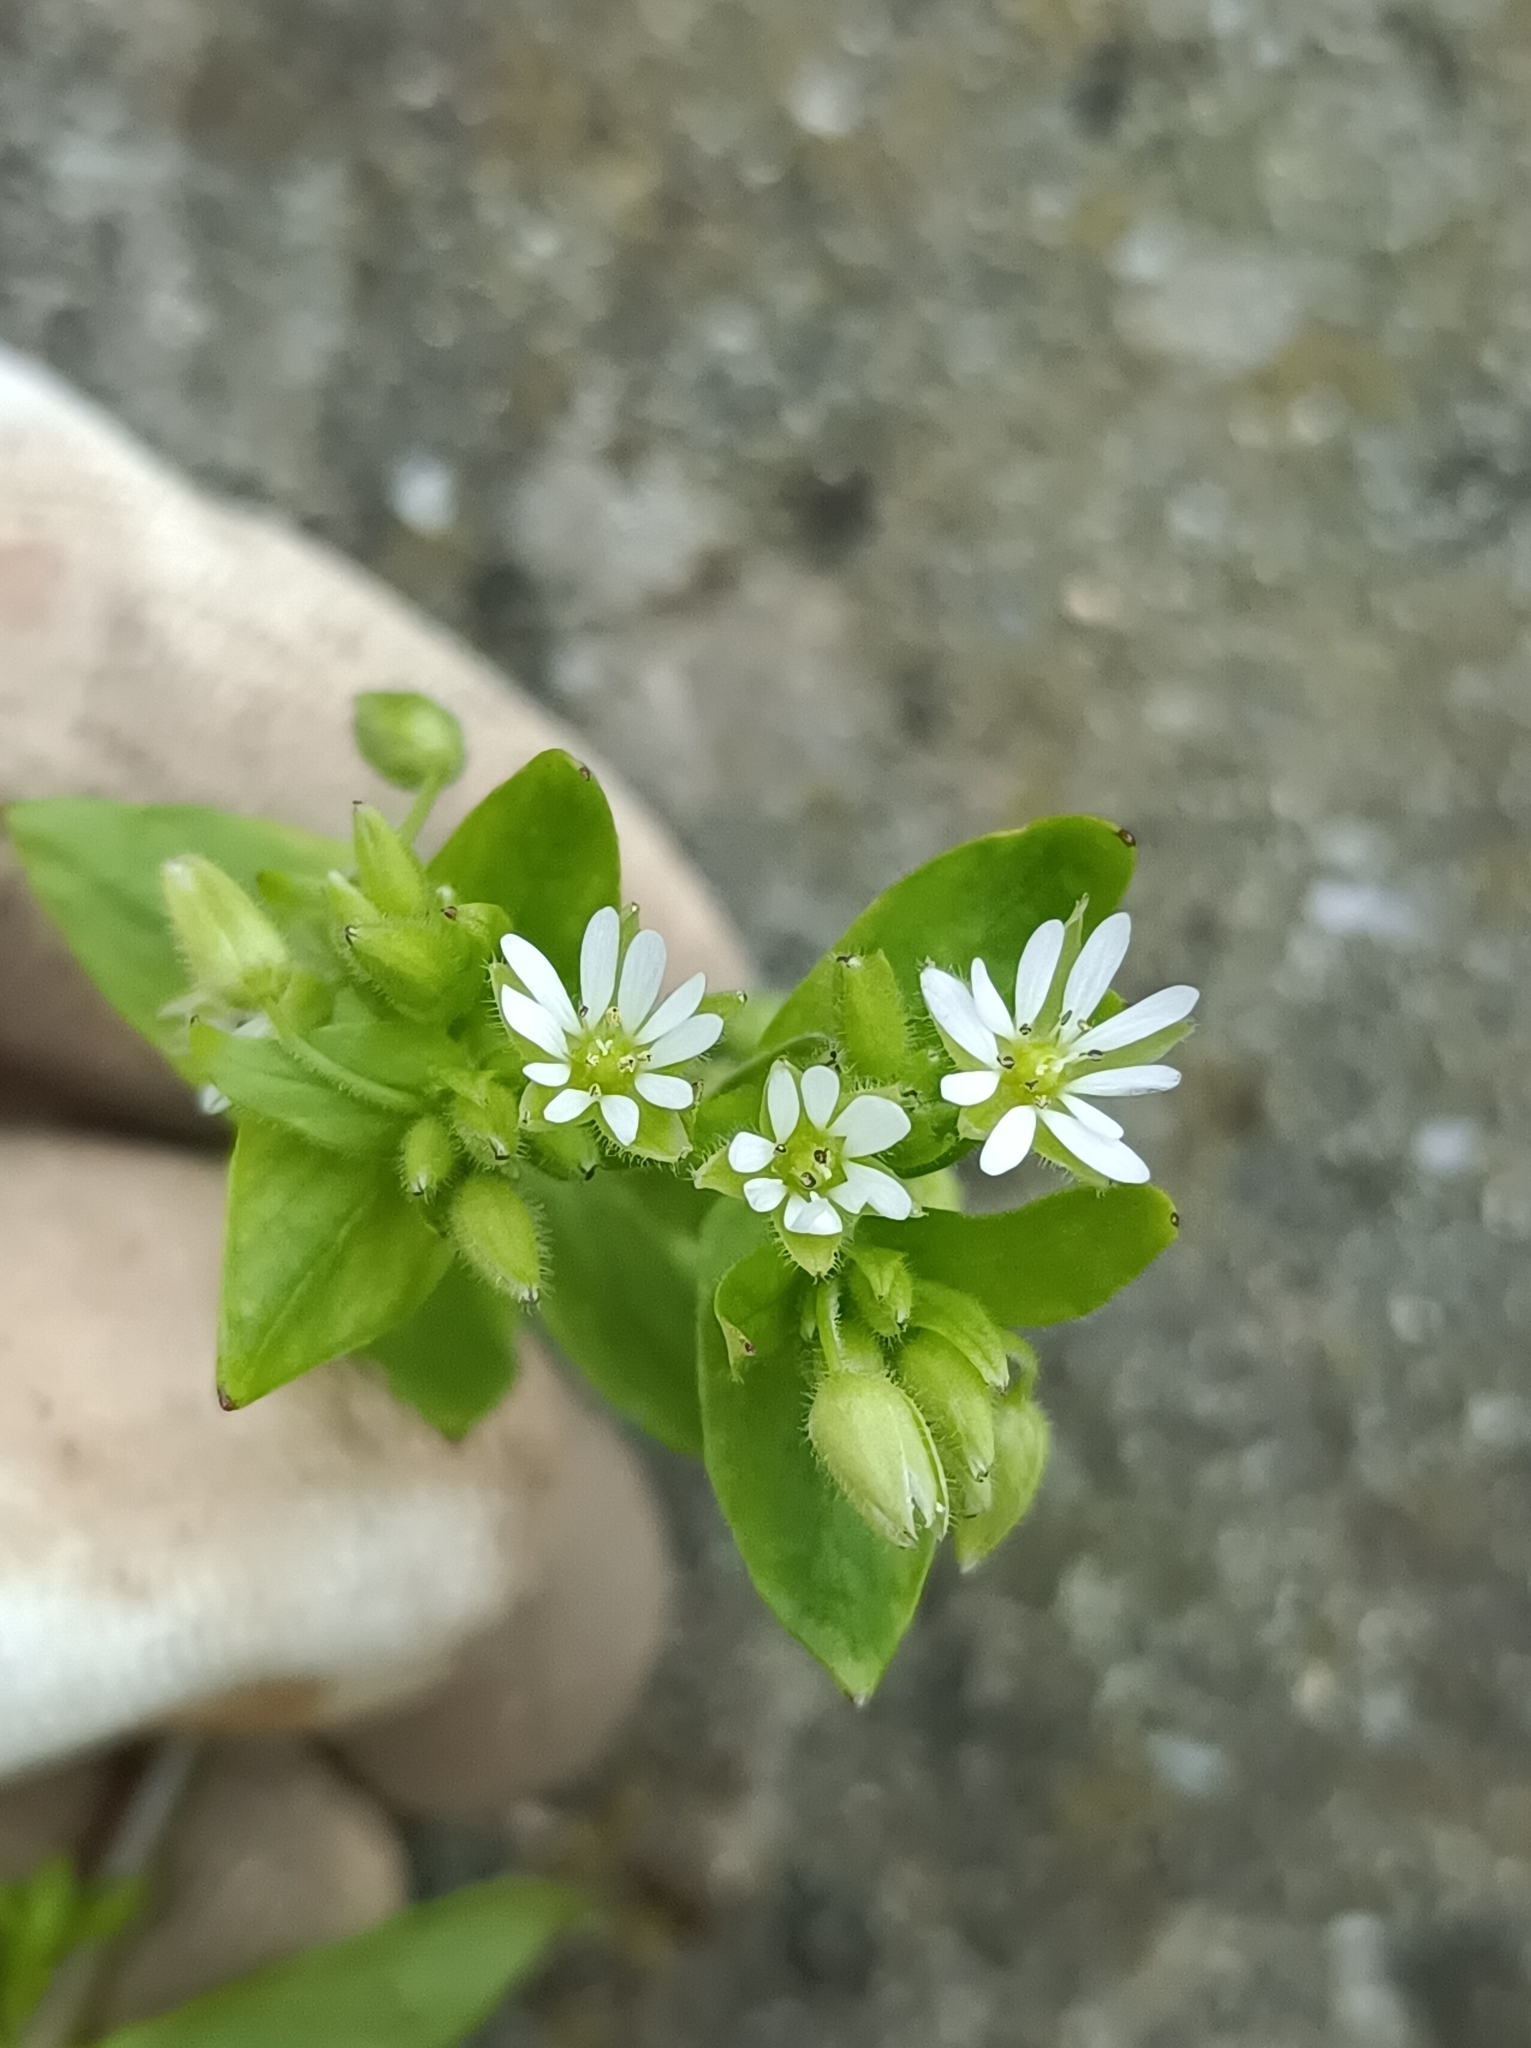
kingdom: Plantae
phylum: Tracheophyta
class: Magnoliopsida
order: Caryophyllales
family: Caryophyllaceae
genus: Stellaria
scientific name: Stellaria media
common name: Common chickweed
